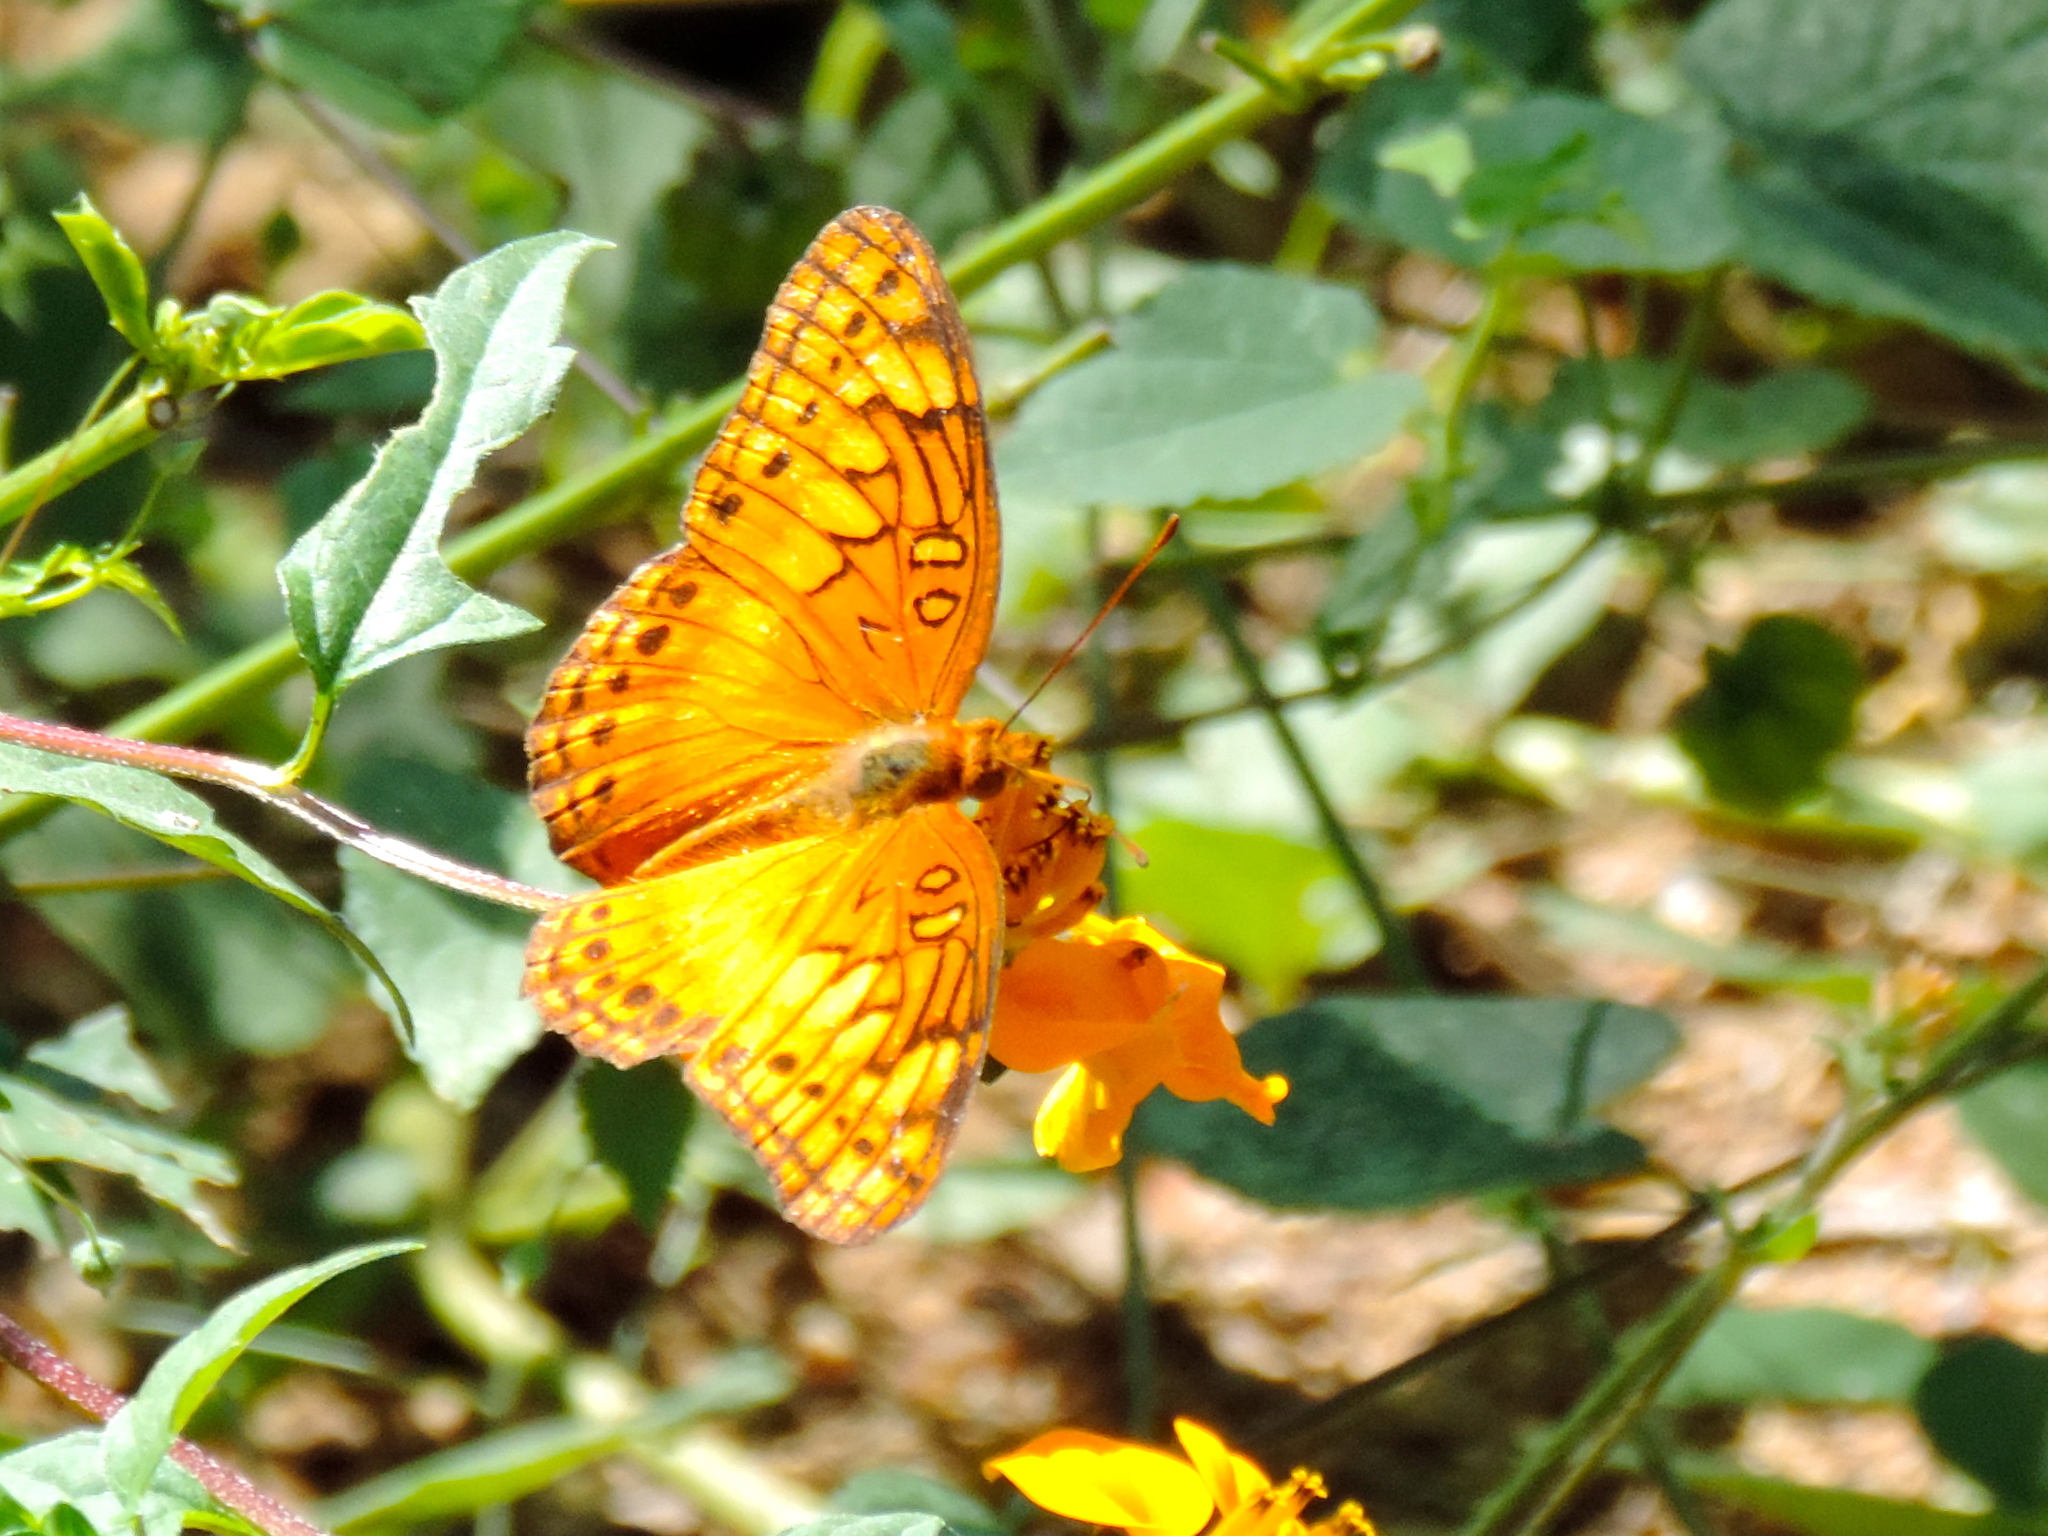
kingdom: Animalia
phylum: Arthropoda
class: Insecta
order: Lepidoptera
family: Nymphalidae
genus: Euptoieta
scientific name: Euptoieta hegesia
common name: Mexican fritillary
